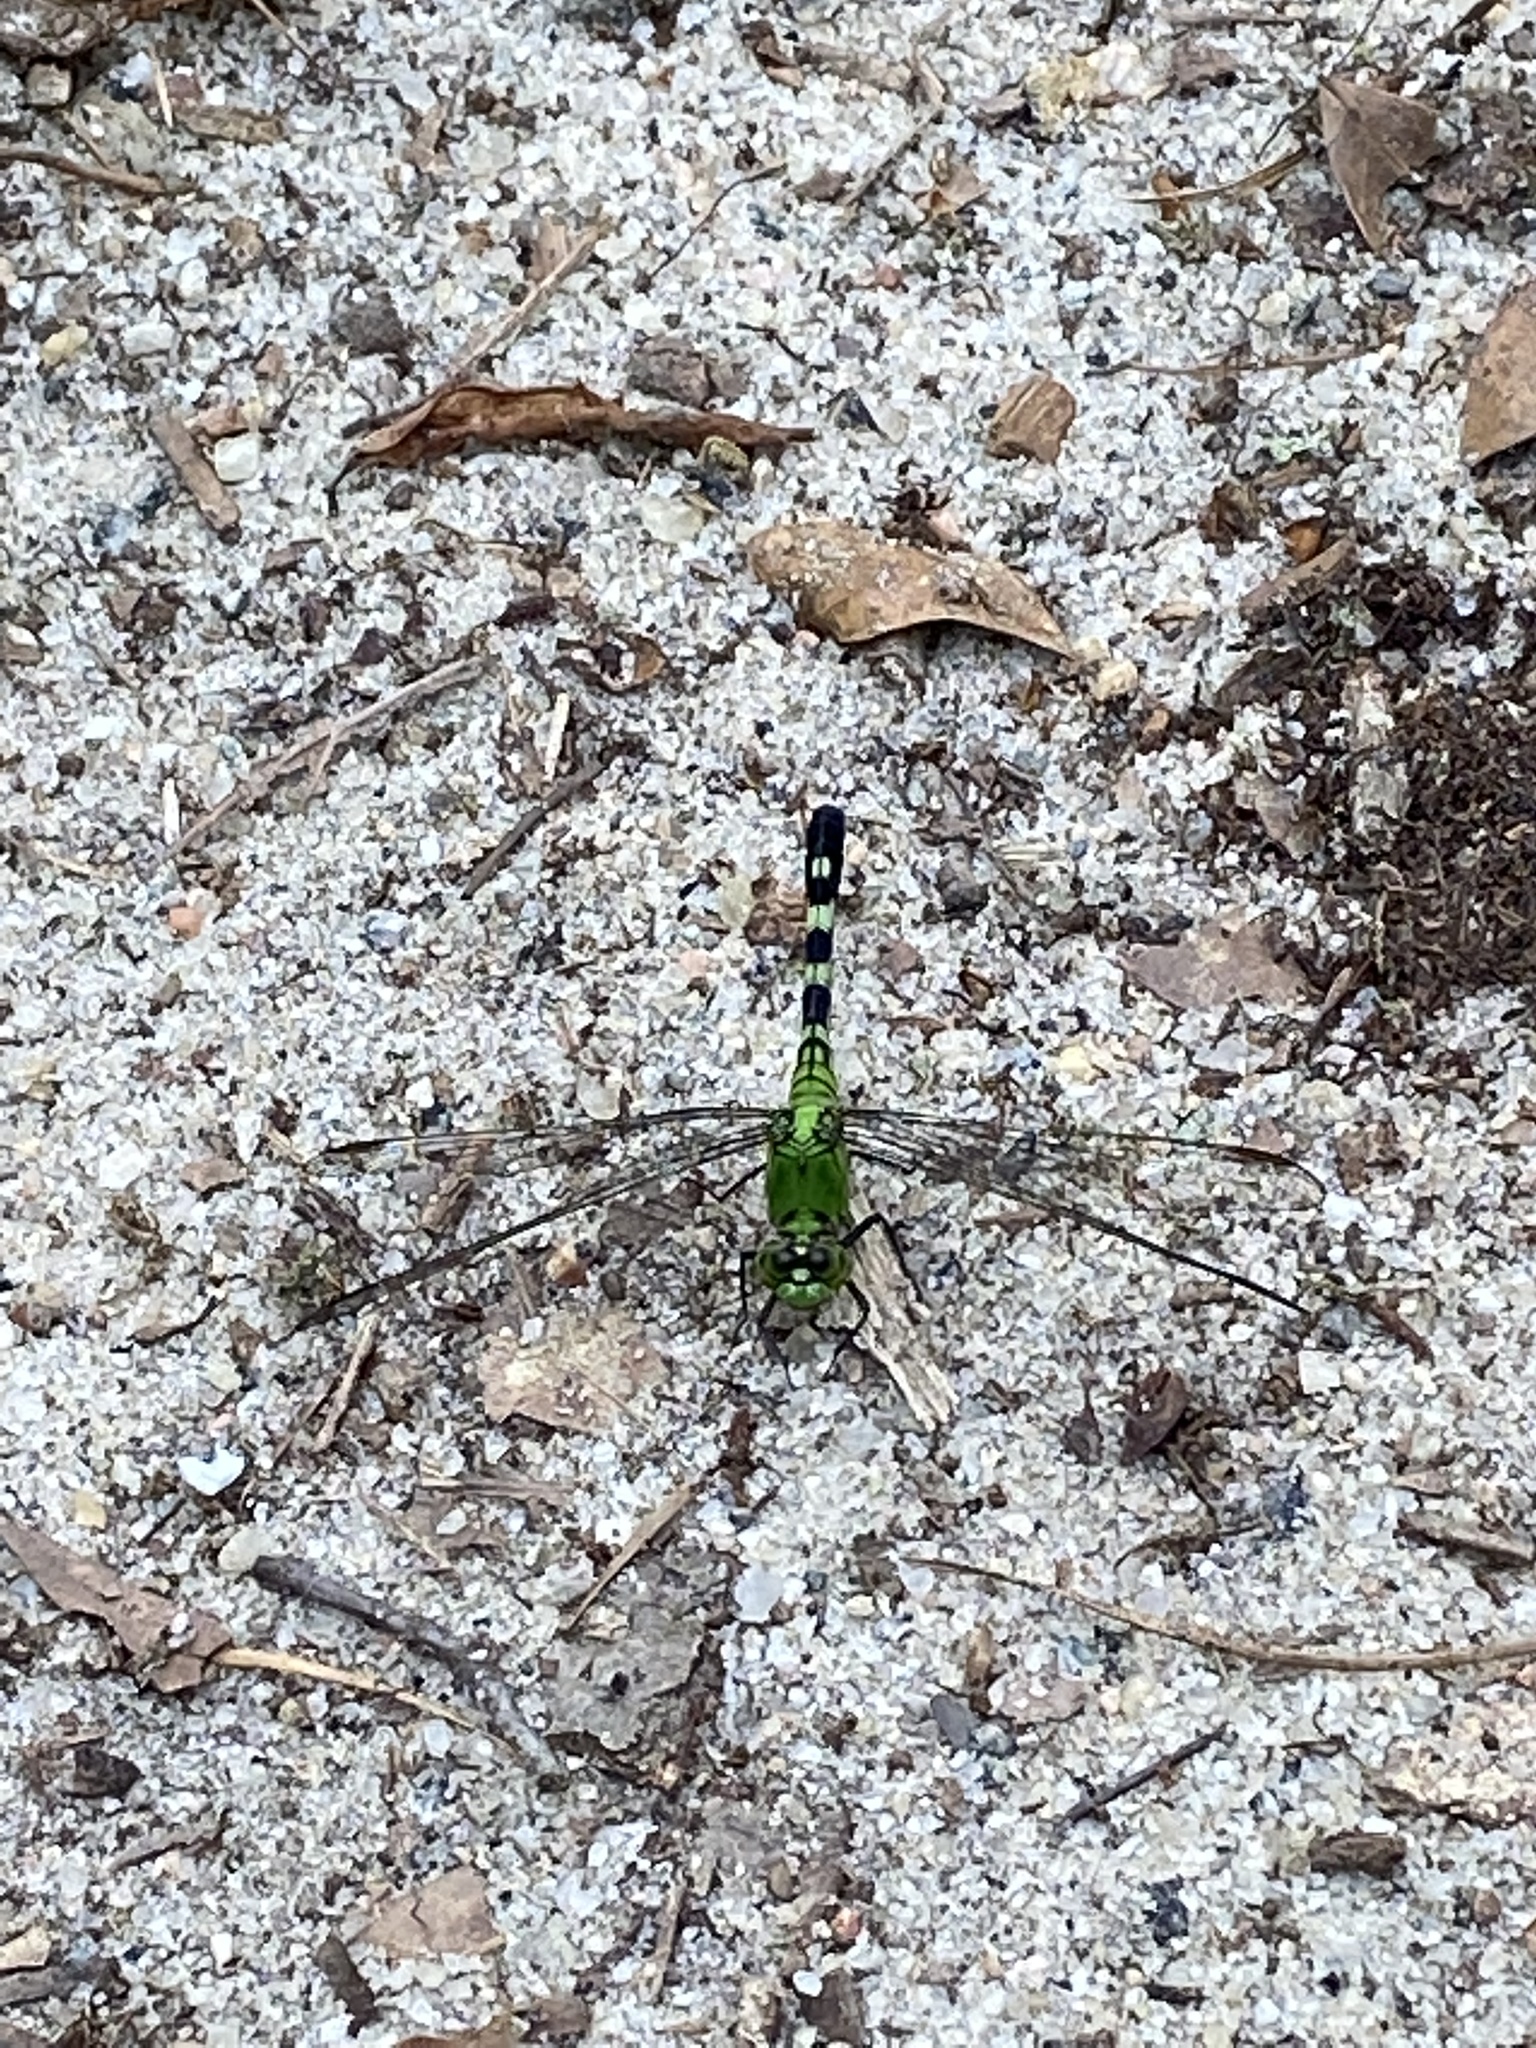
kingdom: Animalia
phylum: Arthropoda
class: Insecta
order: Odonata
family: Libellulidae
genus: Erythemis
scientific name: Erythemis simplicicollis
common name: Eastern pondhawk
